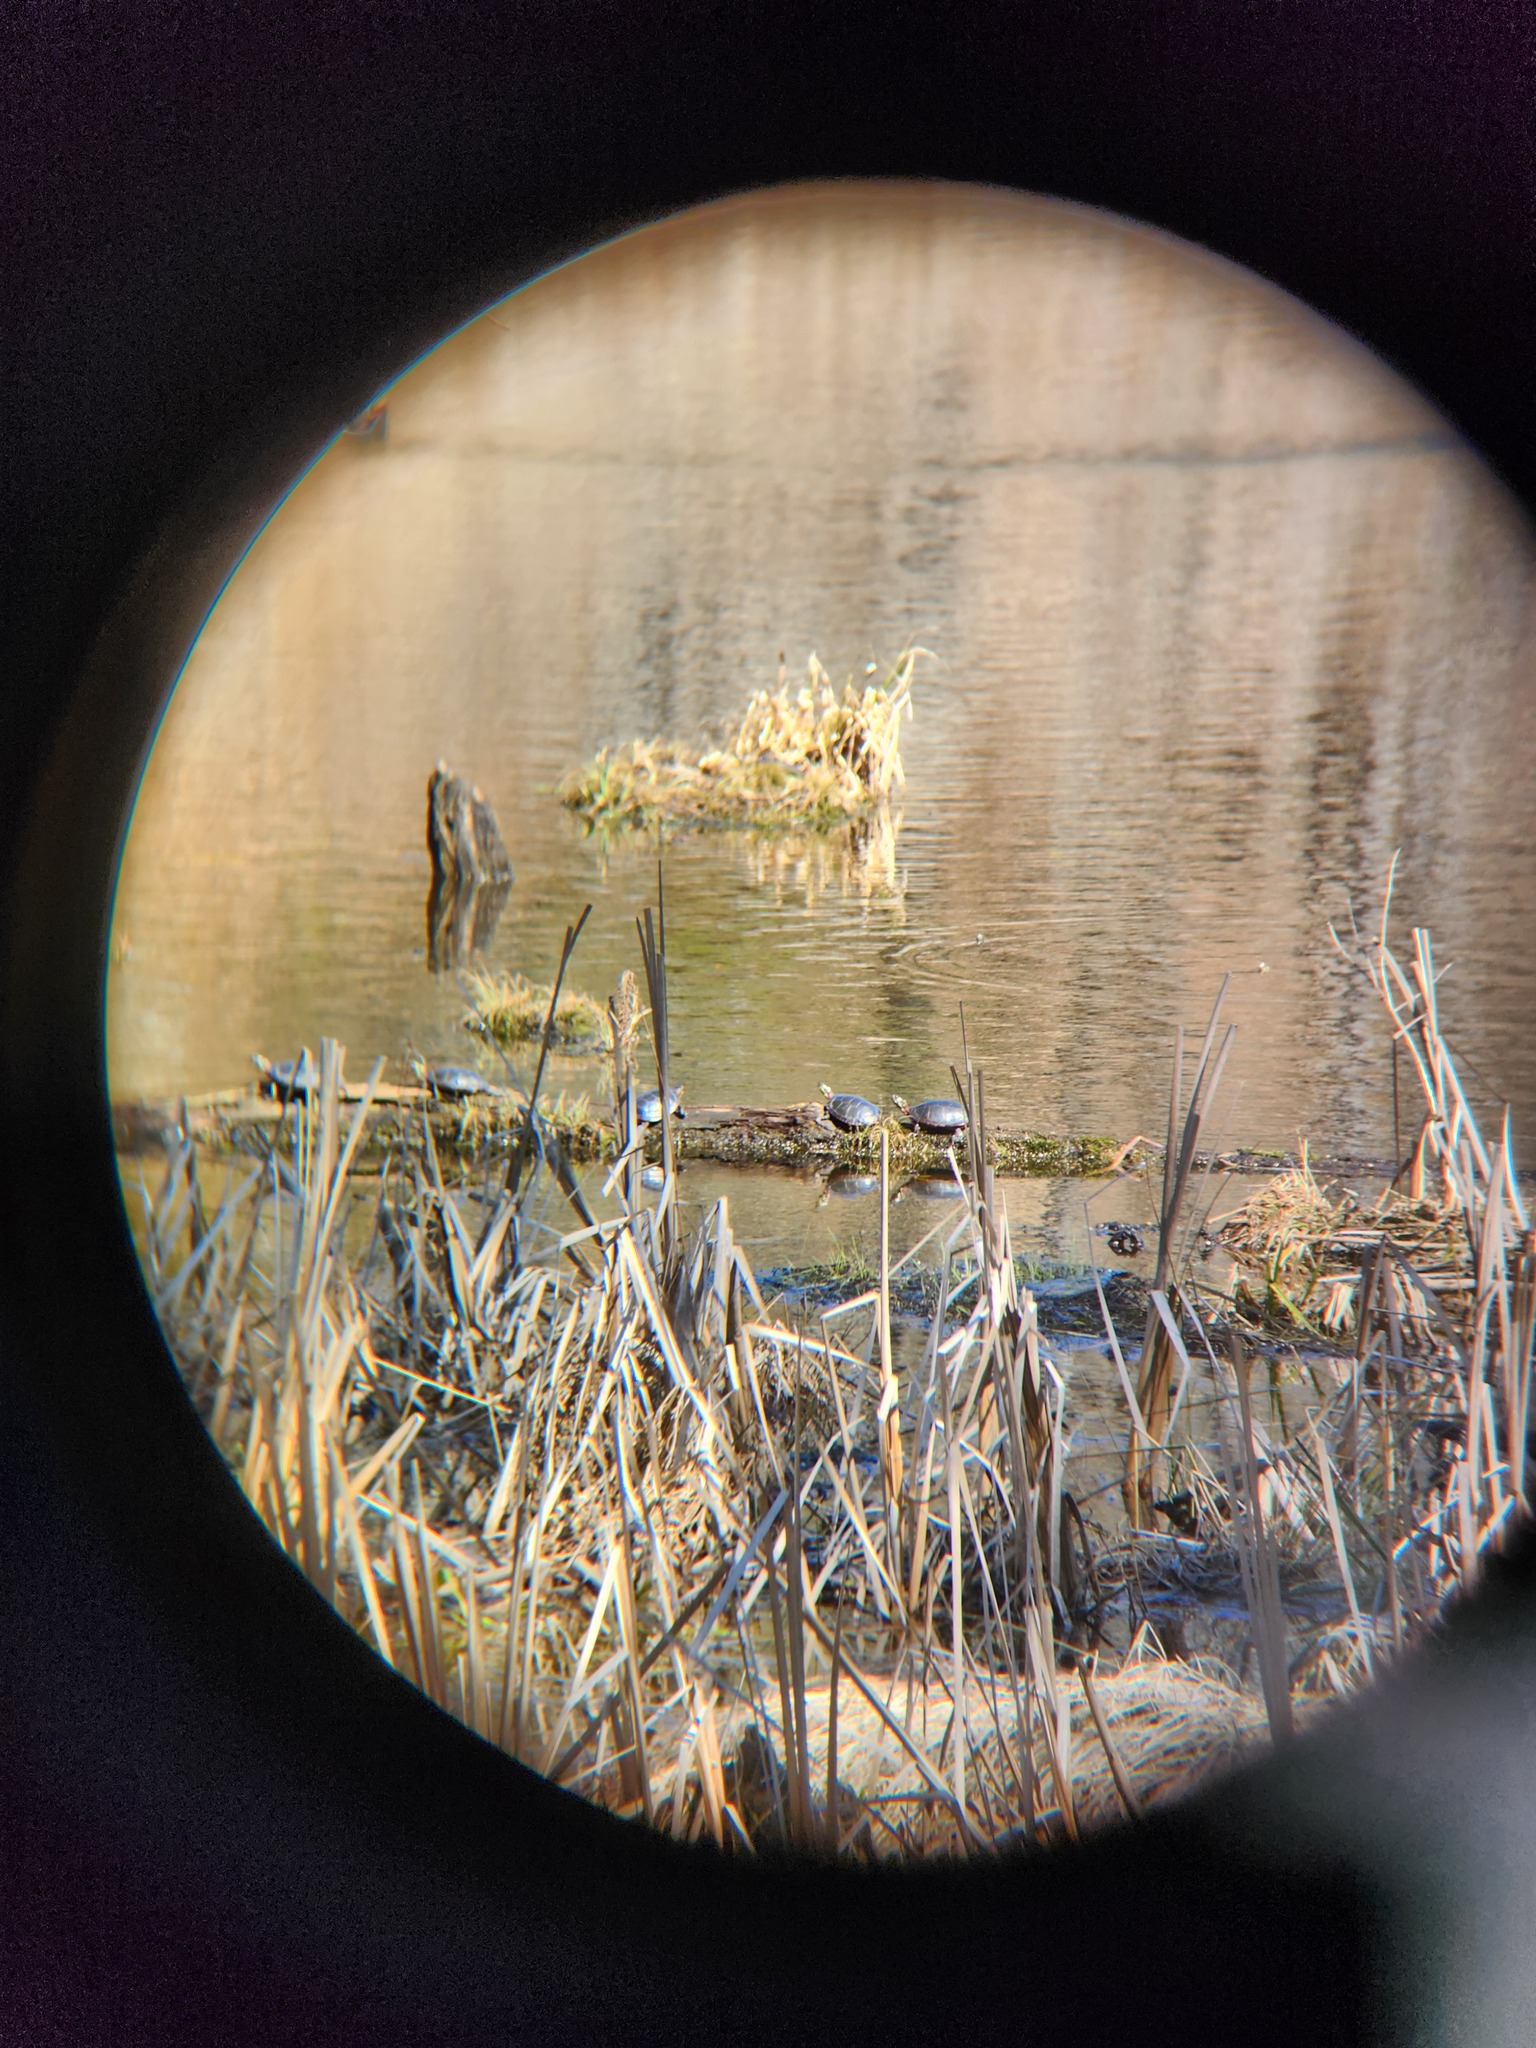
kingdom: Animalia
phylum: Chordata
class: Testudines
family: Emydidae
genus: Chrysemys
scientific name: Chrysemys picta
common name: Painted turtle
